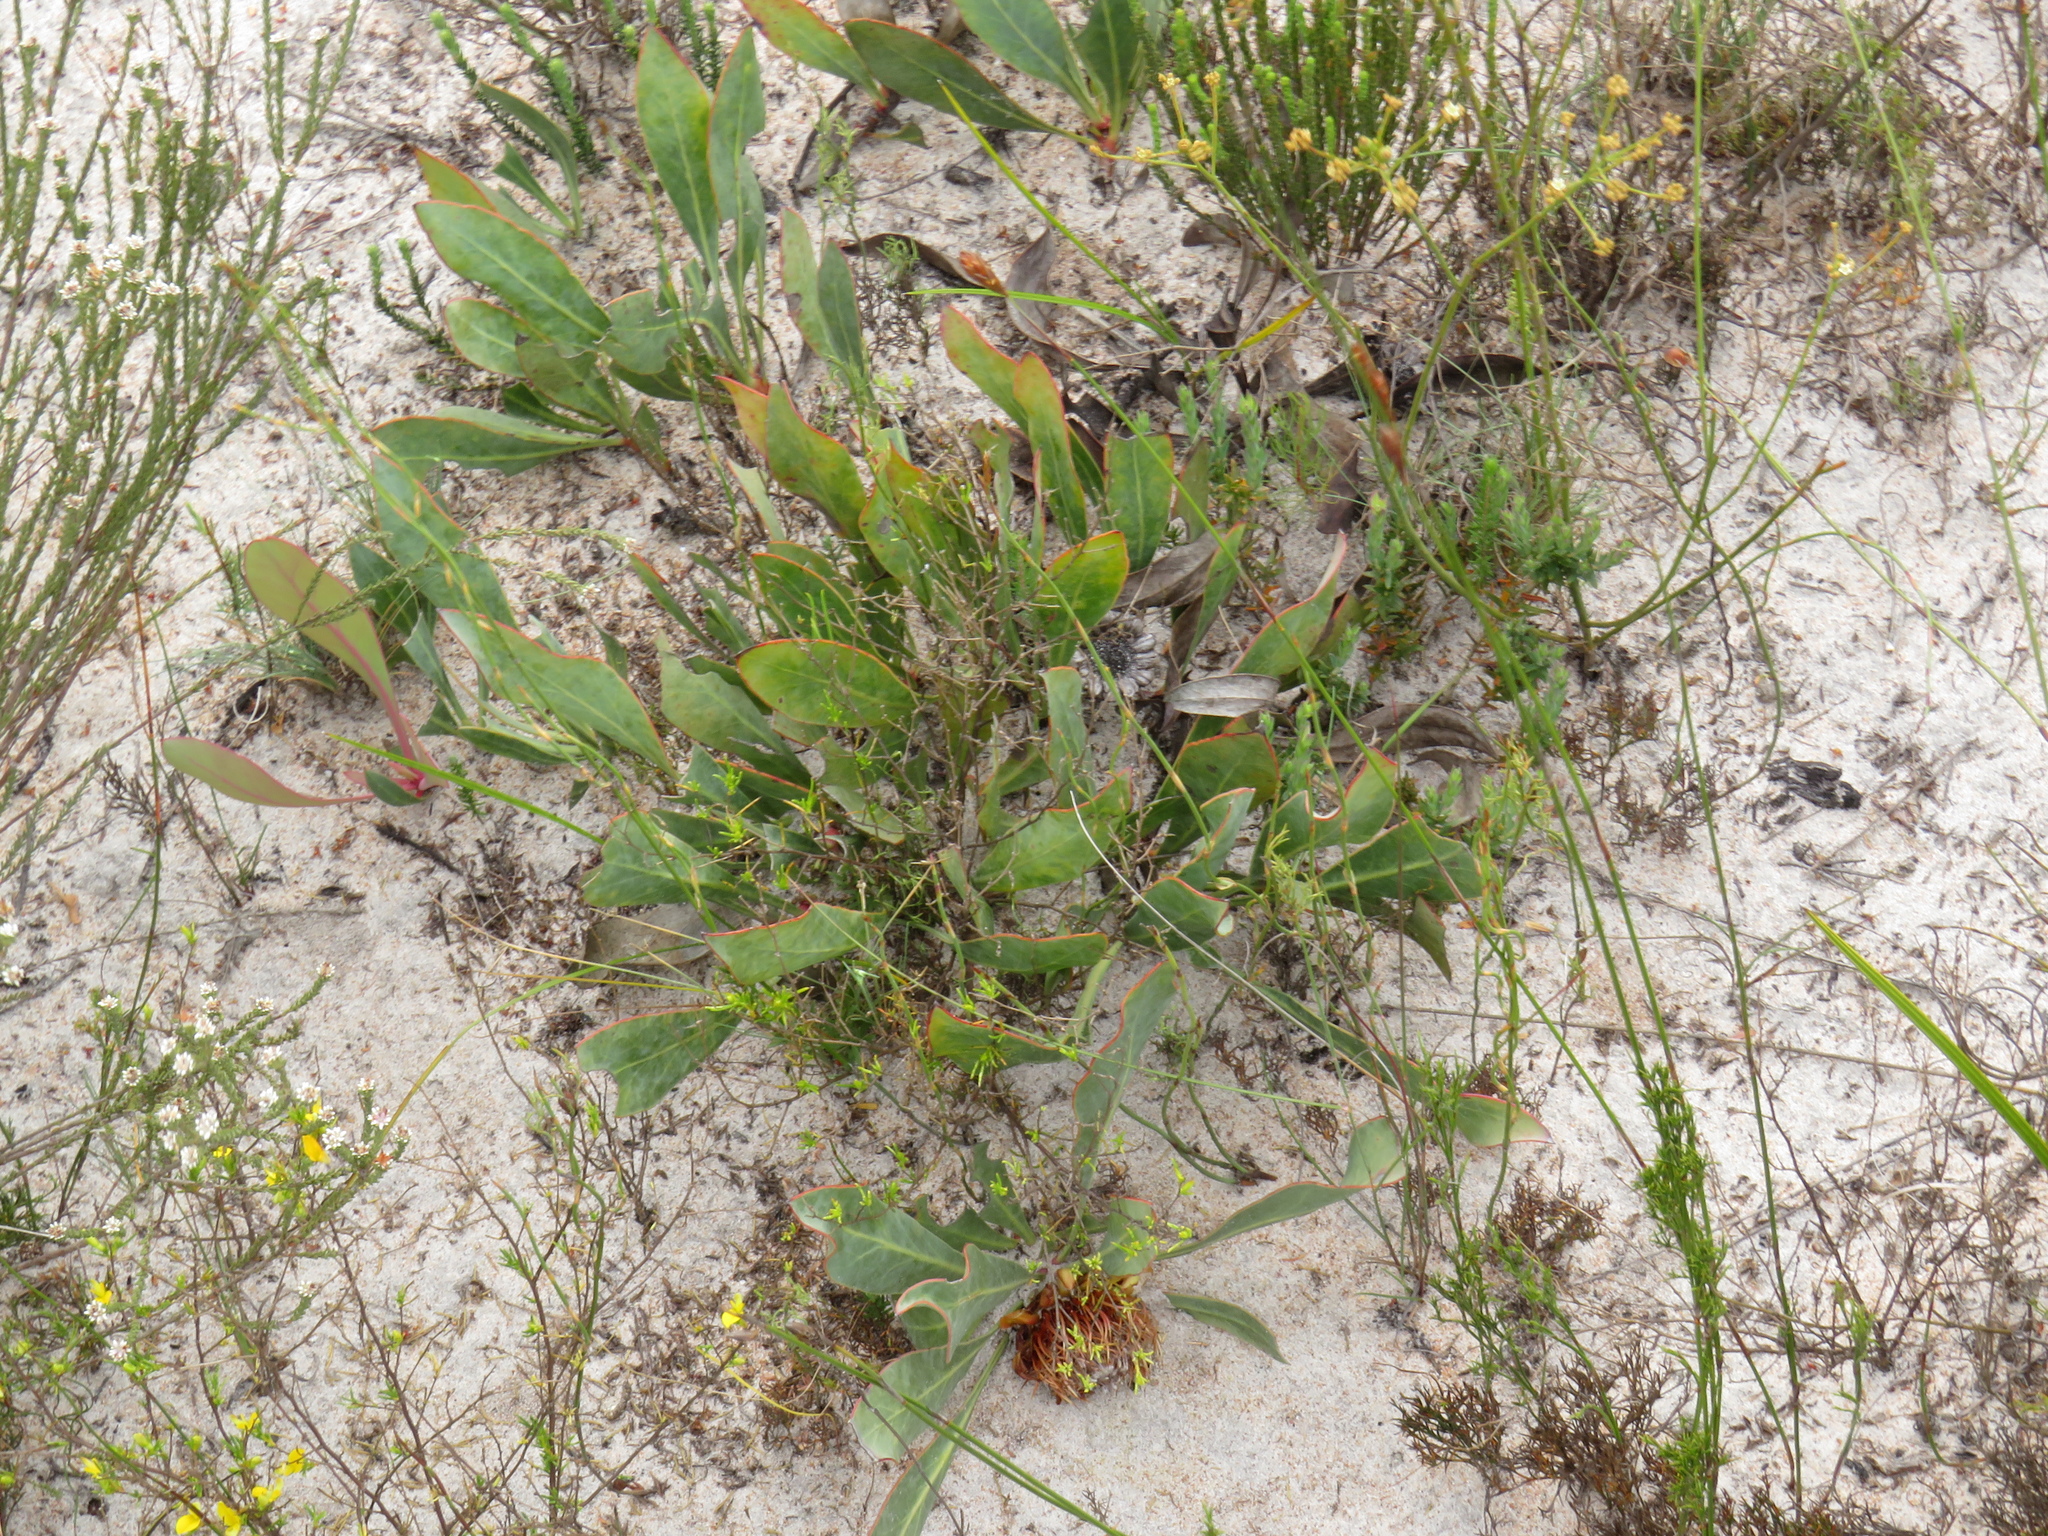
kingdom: Plantae
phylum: Tracheophyta
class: Magnoliopsida
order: Proteales
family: Proteaceae
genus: Protea
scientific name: Protea acaulos
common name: Common ground sugarbush
